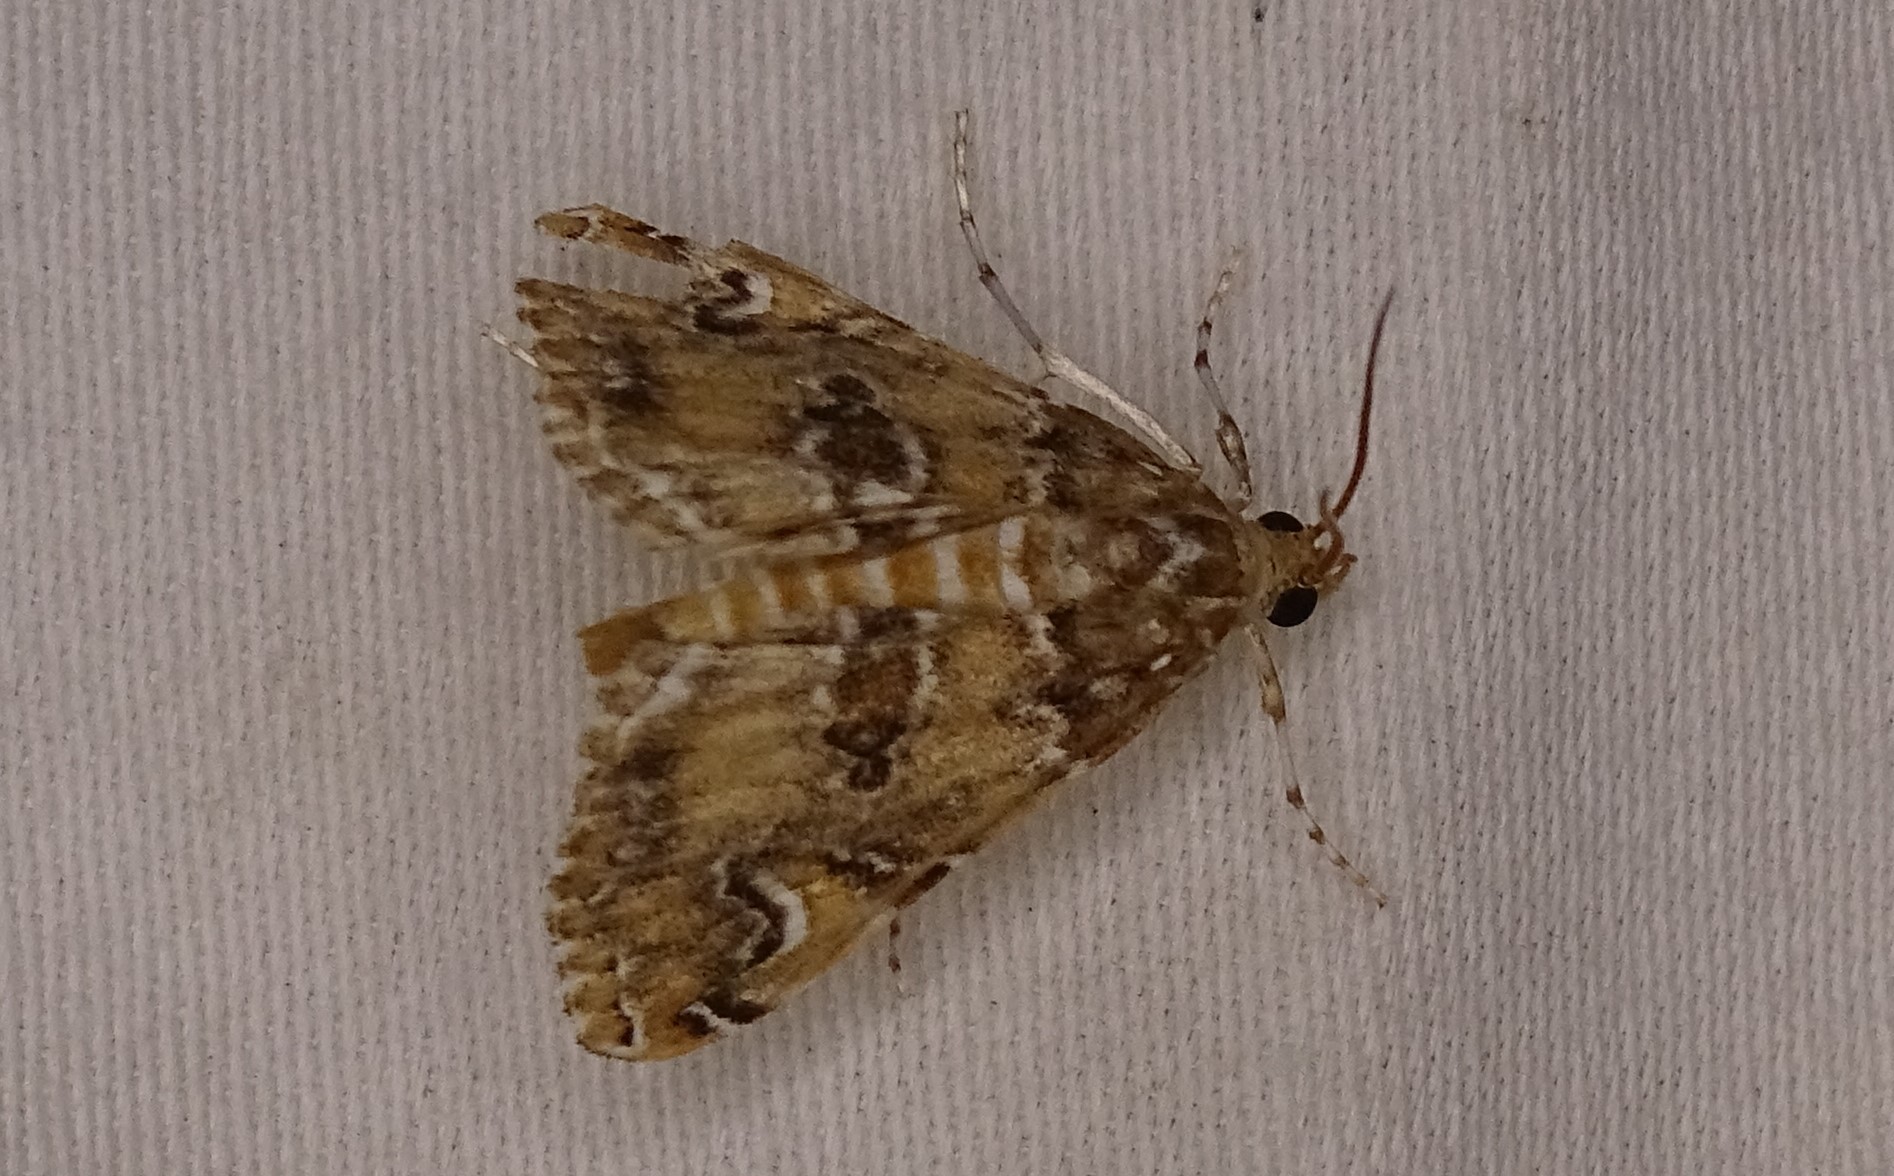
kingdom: Animalia
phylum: Arthropoda
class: Insecta
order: Lepidoptera
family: Crambidae
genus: Elophila
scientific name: Elophila gyralis
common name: Waterlily borer moth
